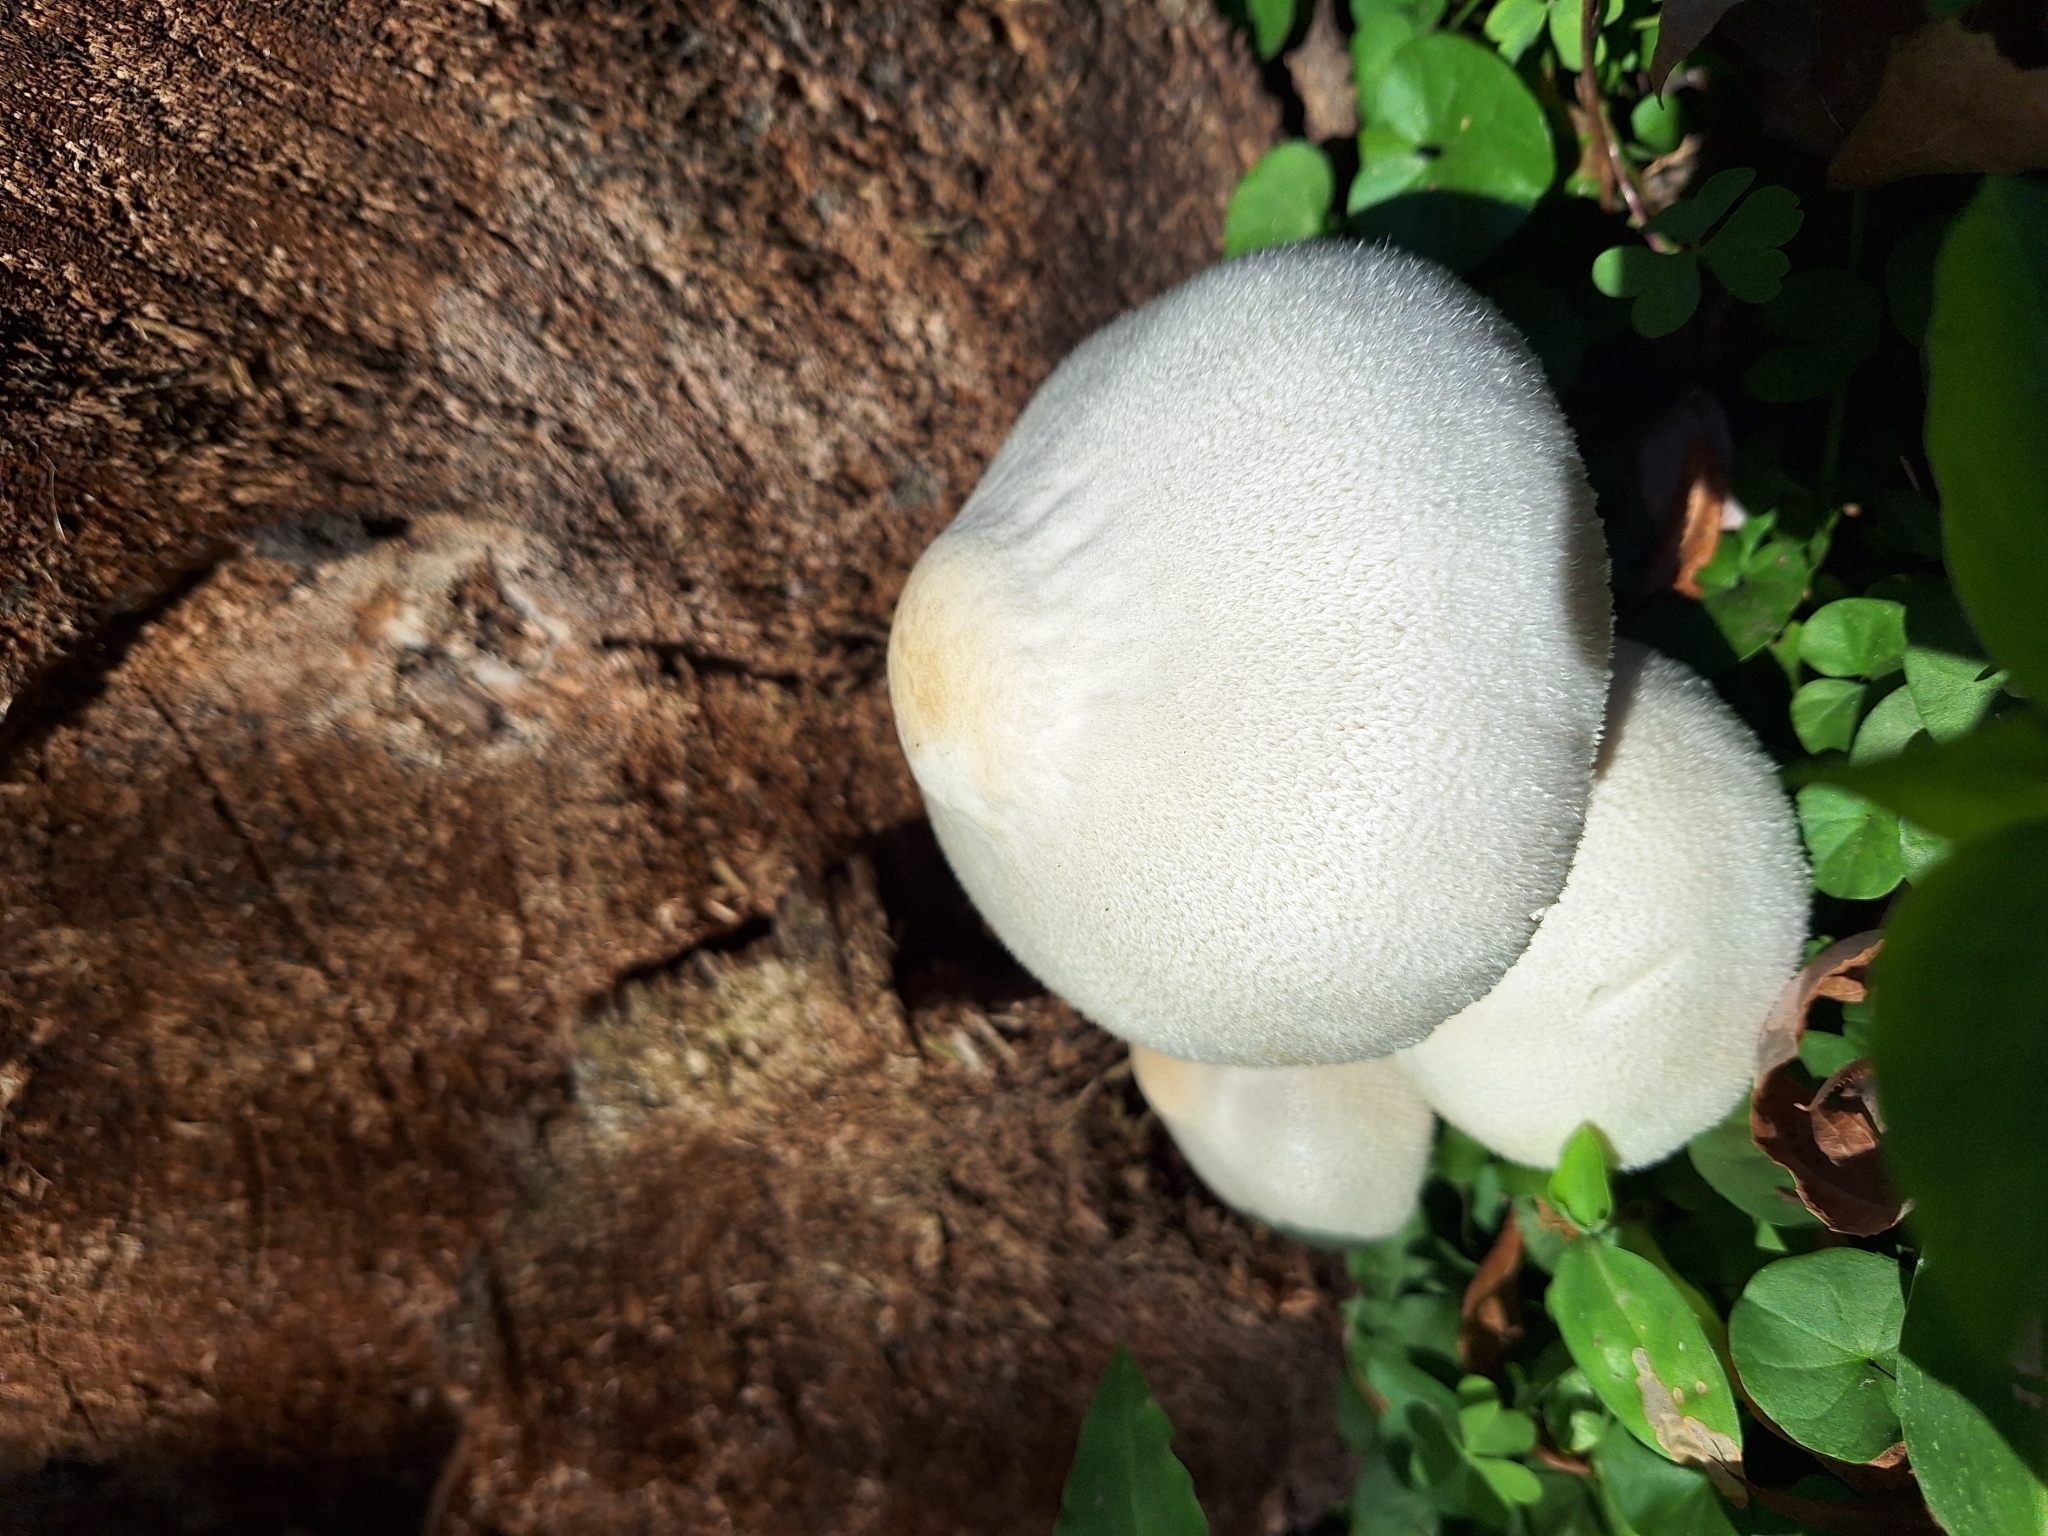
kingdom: Fungi
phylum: Basidiomycota
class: Agaricomycetes
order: Agaricales
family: Pluteaceae
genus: Volvariella
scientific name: Volvariella bombycina
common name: Silky rosegill
